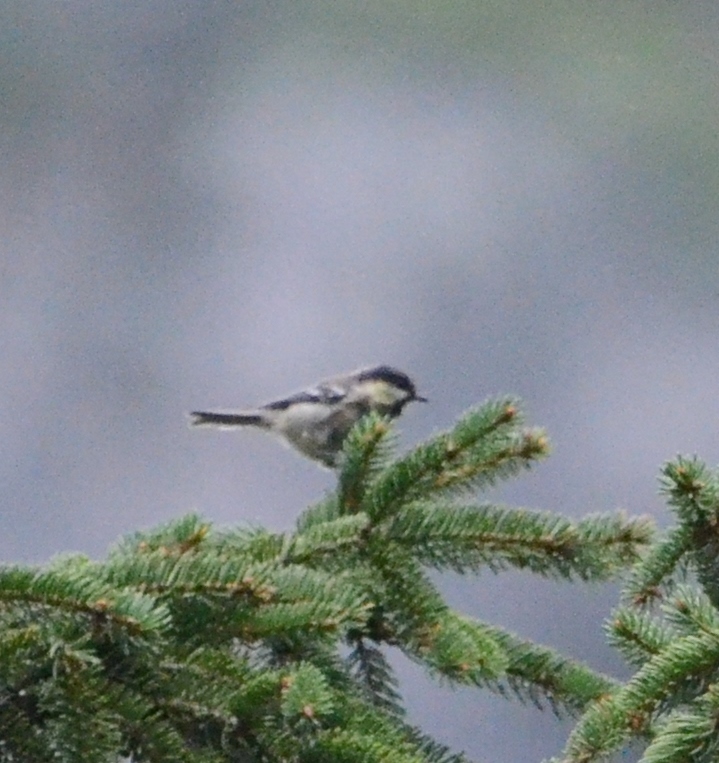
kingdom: Animalia
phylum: Chordata
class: Aves
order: Passeriformes
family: Paridae
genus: Periparus
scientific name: Periparus ater
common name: Coal tit
